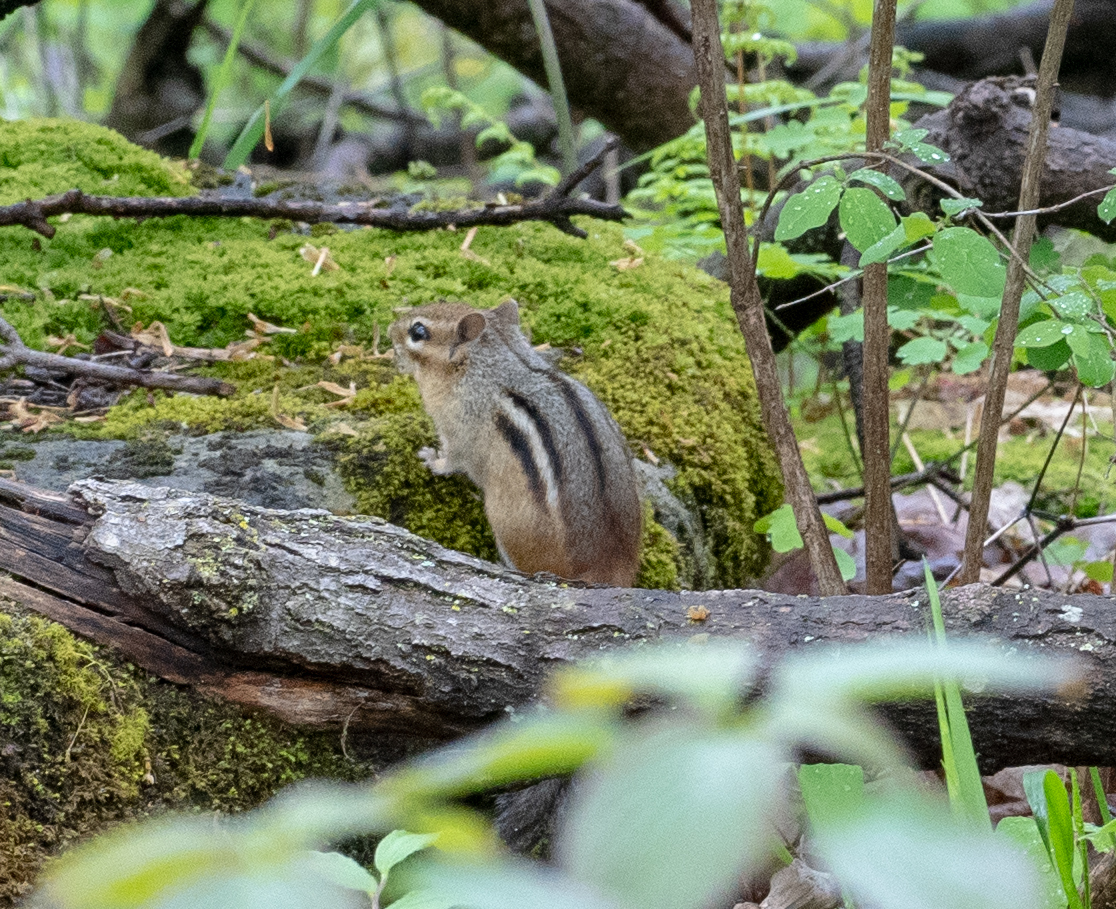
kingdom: Animalia
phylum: Chordata
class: Mammalia
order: Rodentia
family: Sciuridae
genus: Tamias
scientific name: Tamias striatus
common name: Eastern chipmunk
